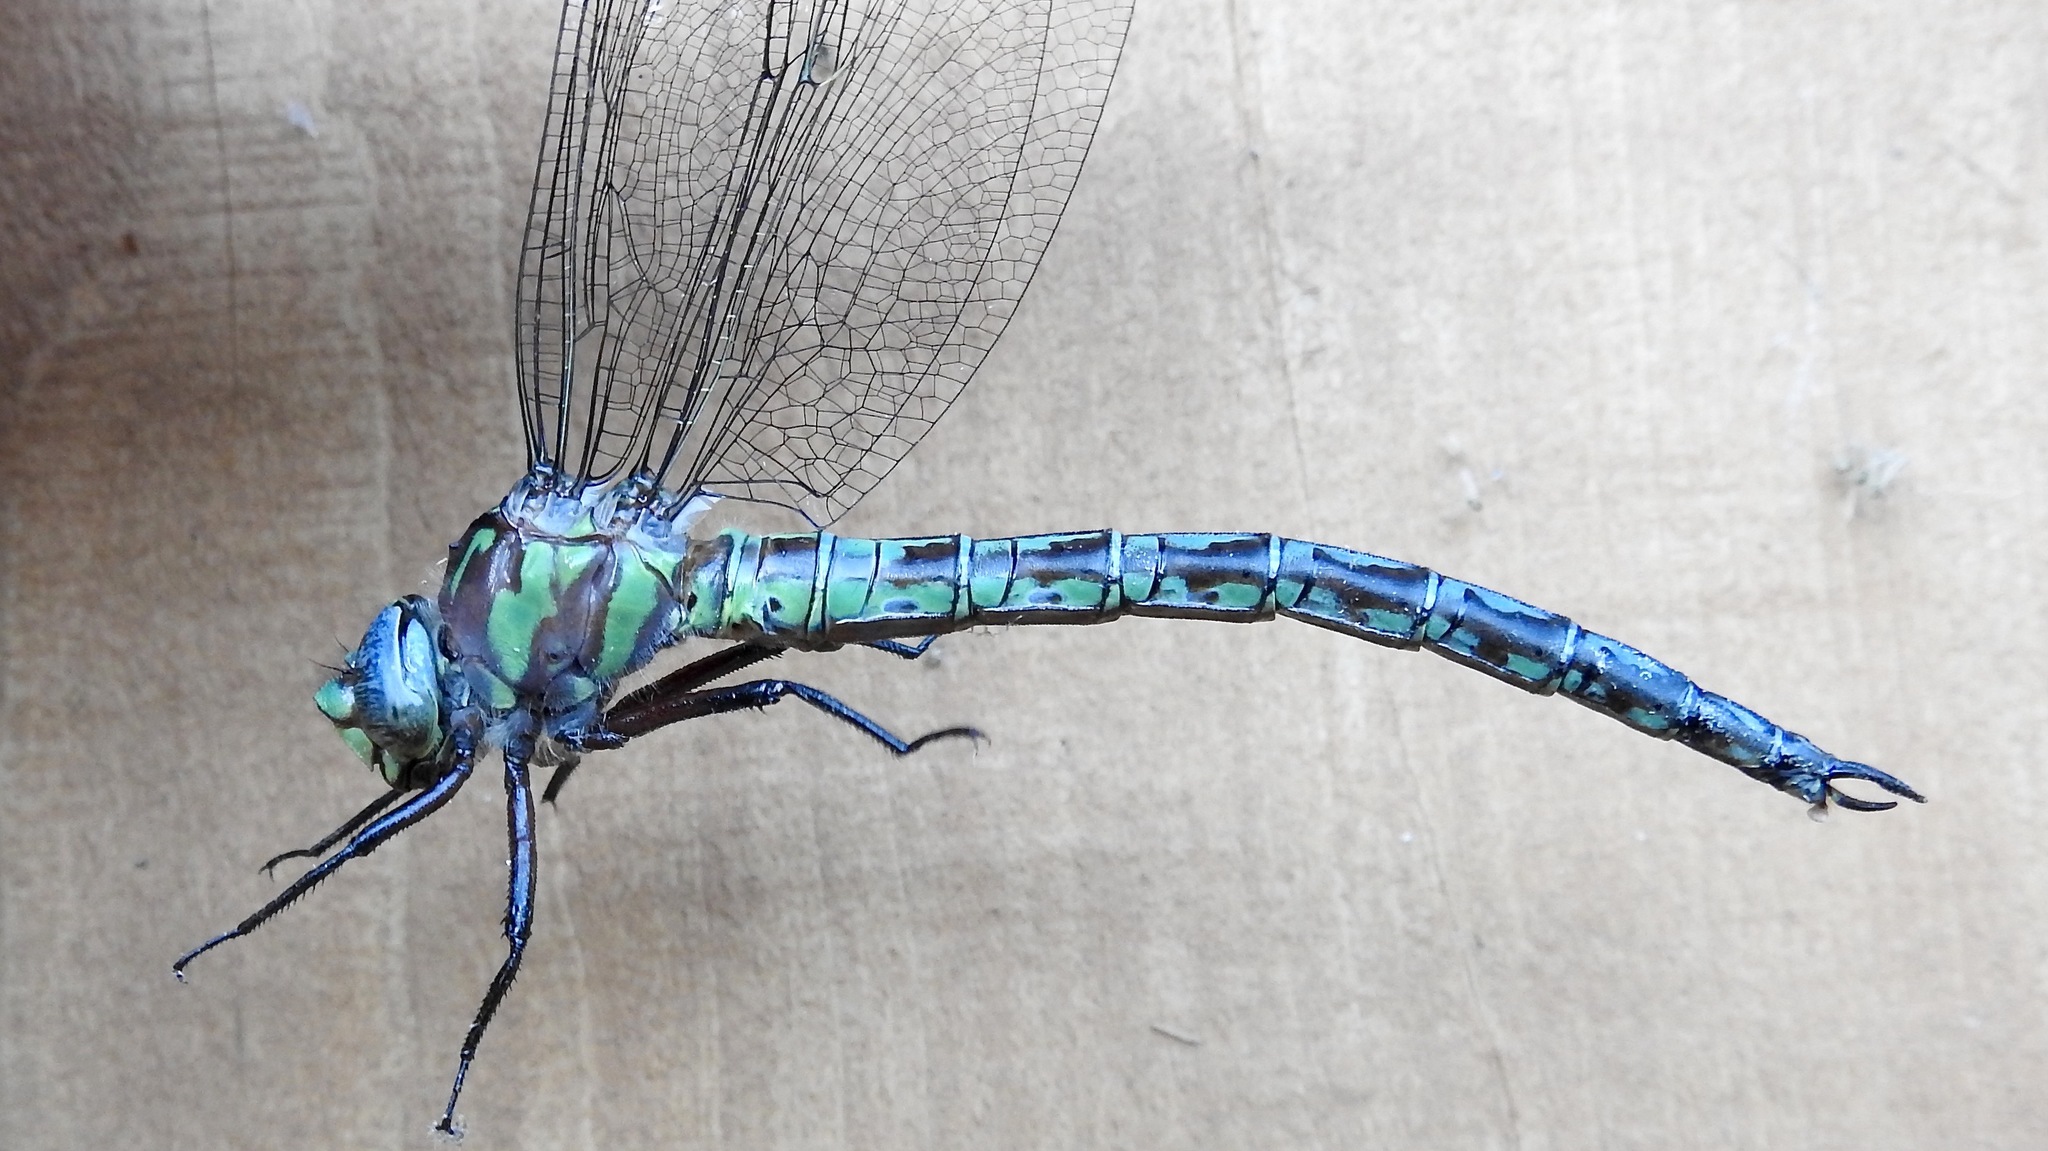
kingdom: Animalia
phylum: Arthropoda
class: Insecta
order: Odonata
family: Aeshnidae
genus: Nasiaeschna
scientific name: Nasiaeschna pentacantha
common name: Cyrano darner
